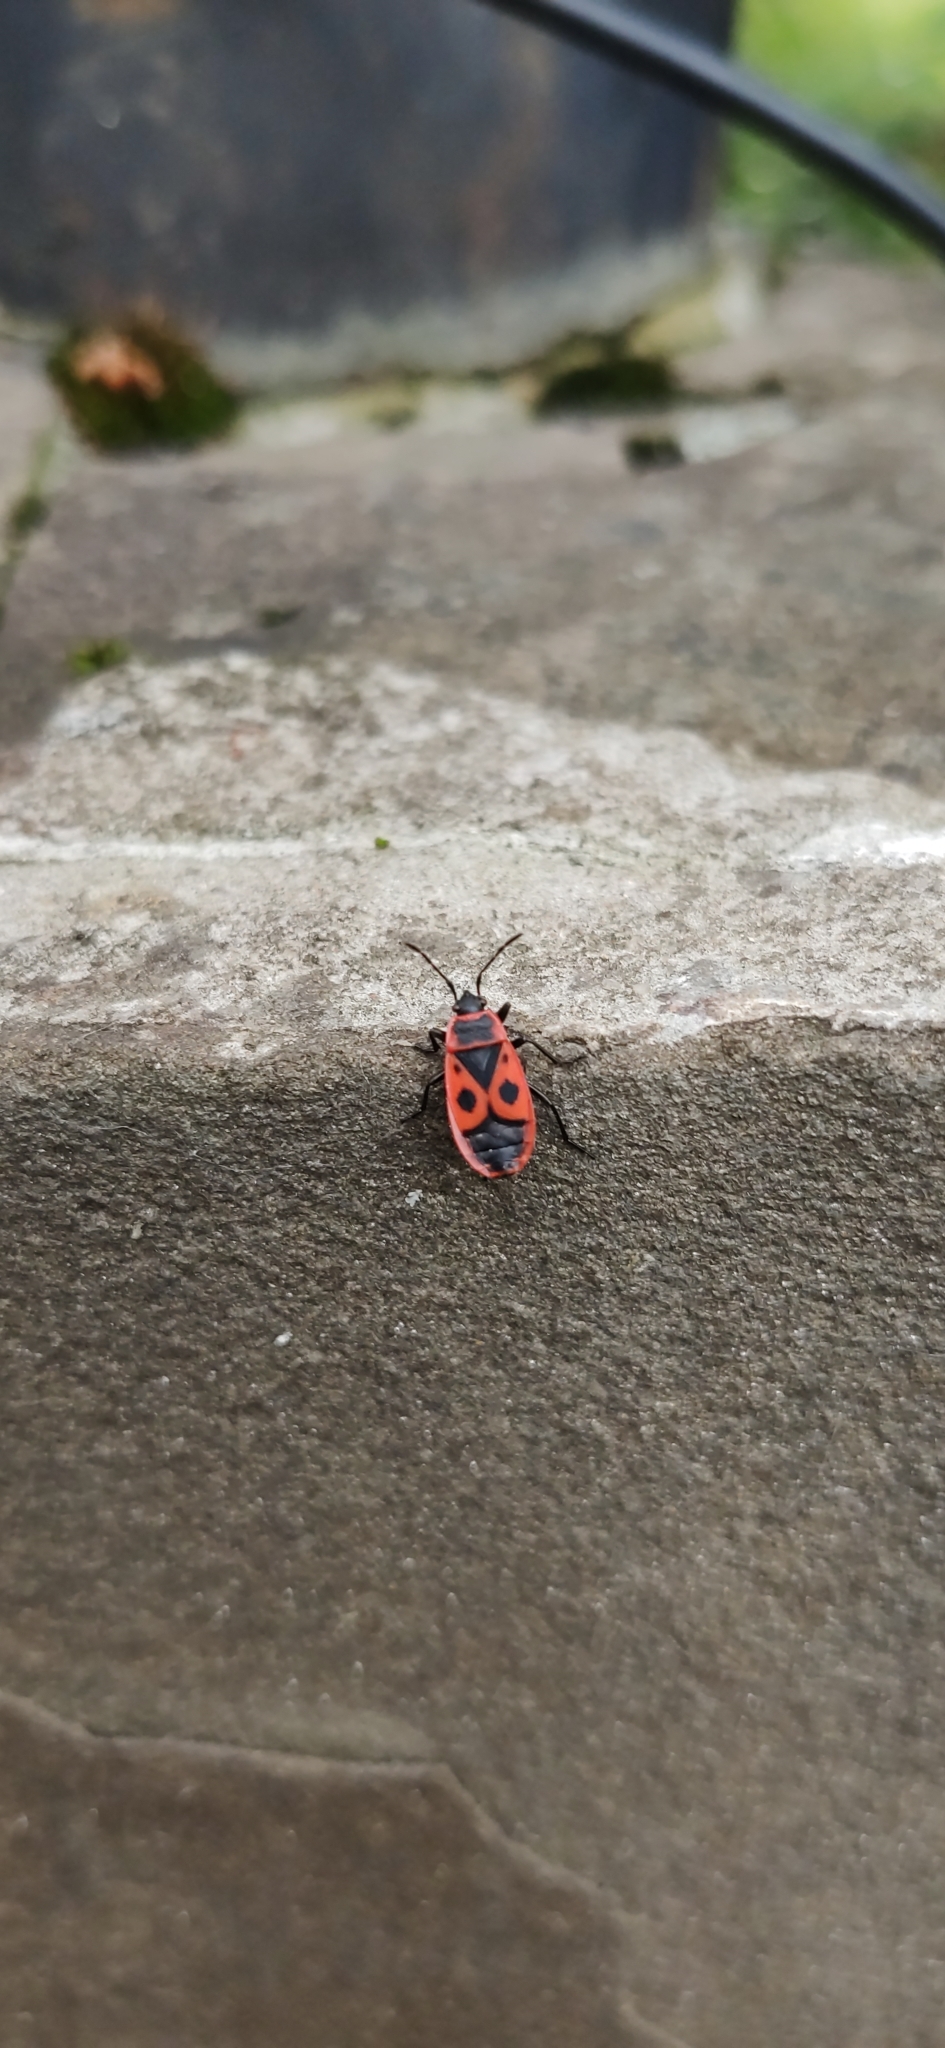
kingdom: Animalia
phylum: Arthropoda
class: Insecta
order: Hemiptera
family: Pyrrhocoridae
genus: Pyrrhocoris
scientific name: Pyrrhocoris apterus
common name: Firebug
